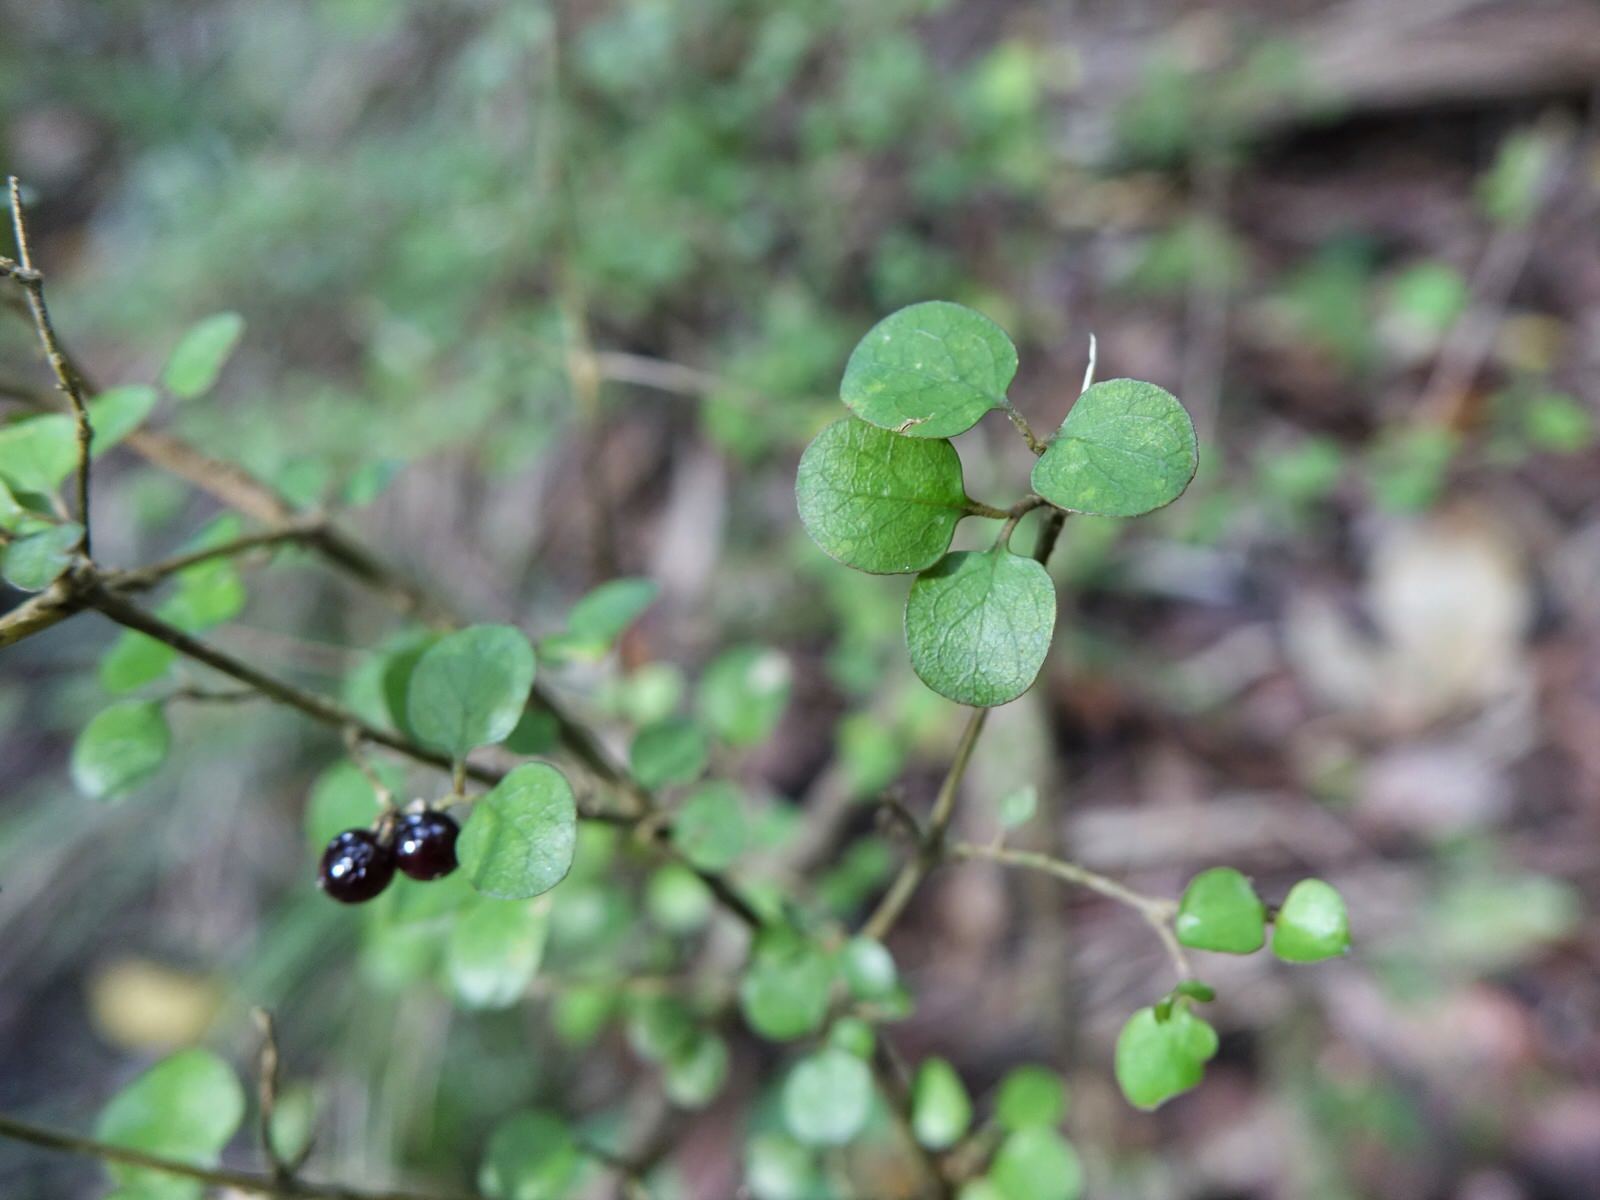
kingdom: Plantae
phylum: Tracheophyta
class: Magnoliopsida
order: Gentianales
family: Rubiaceae
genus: Coprosma
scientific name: Coprosma rhamnoides
